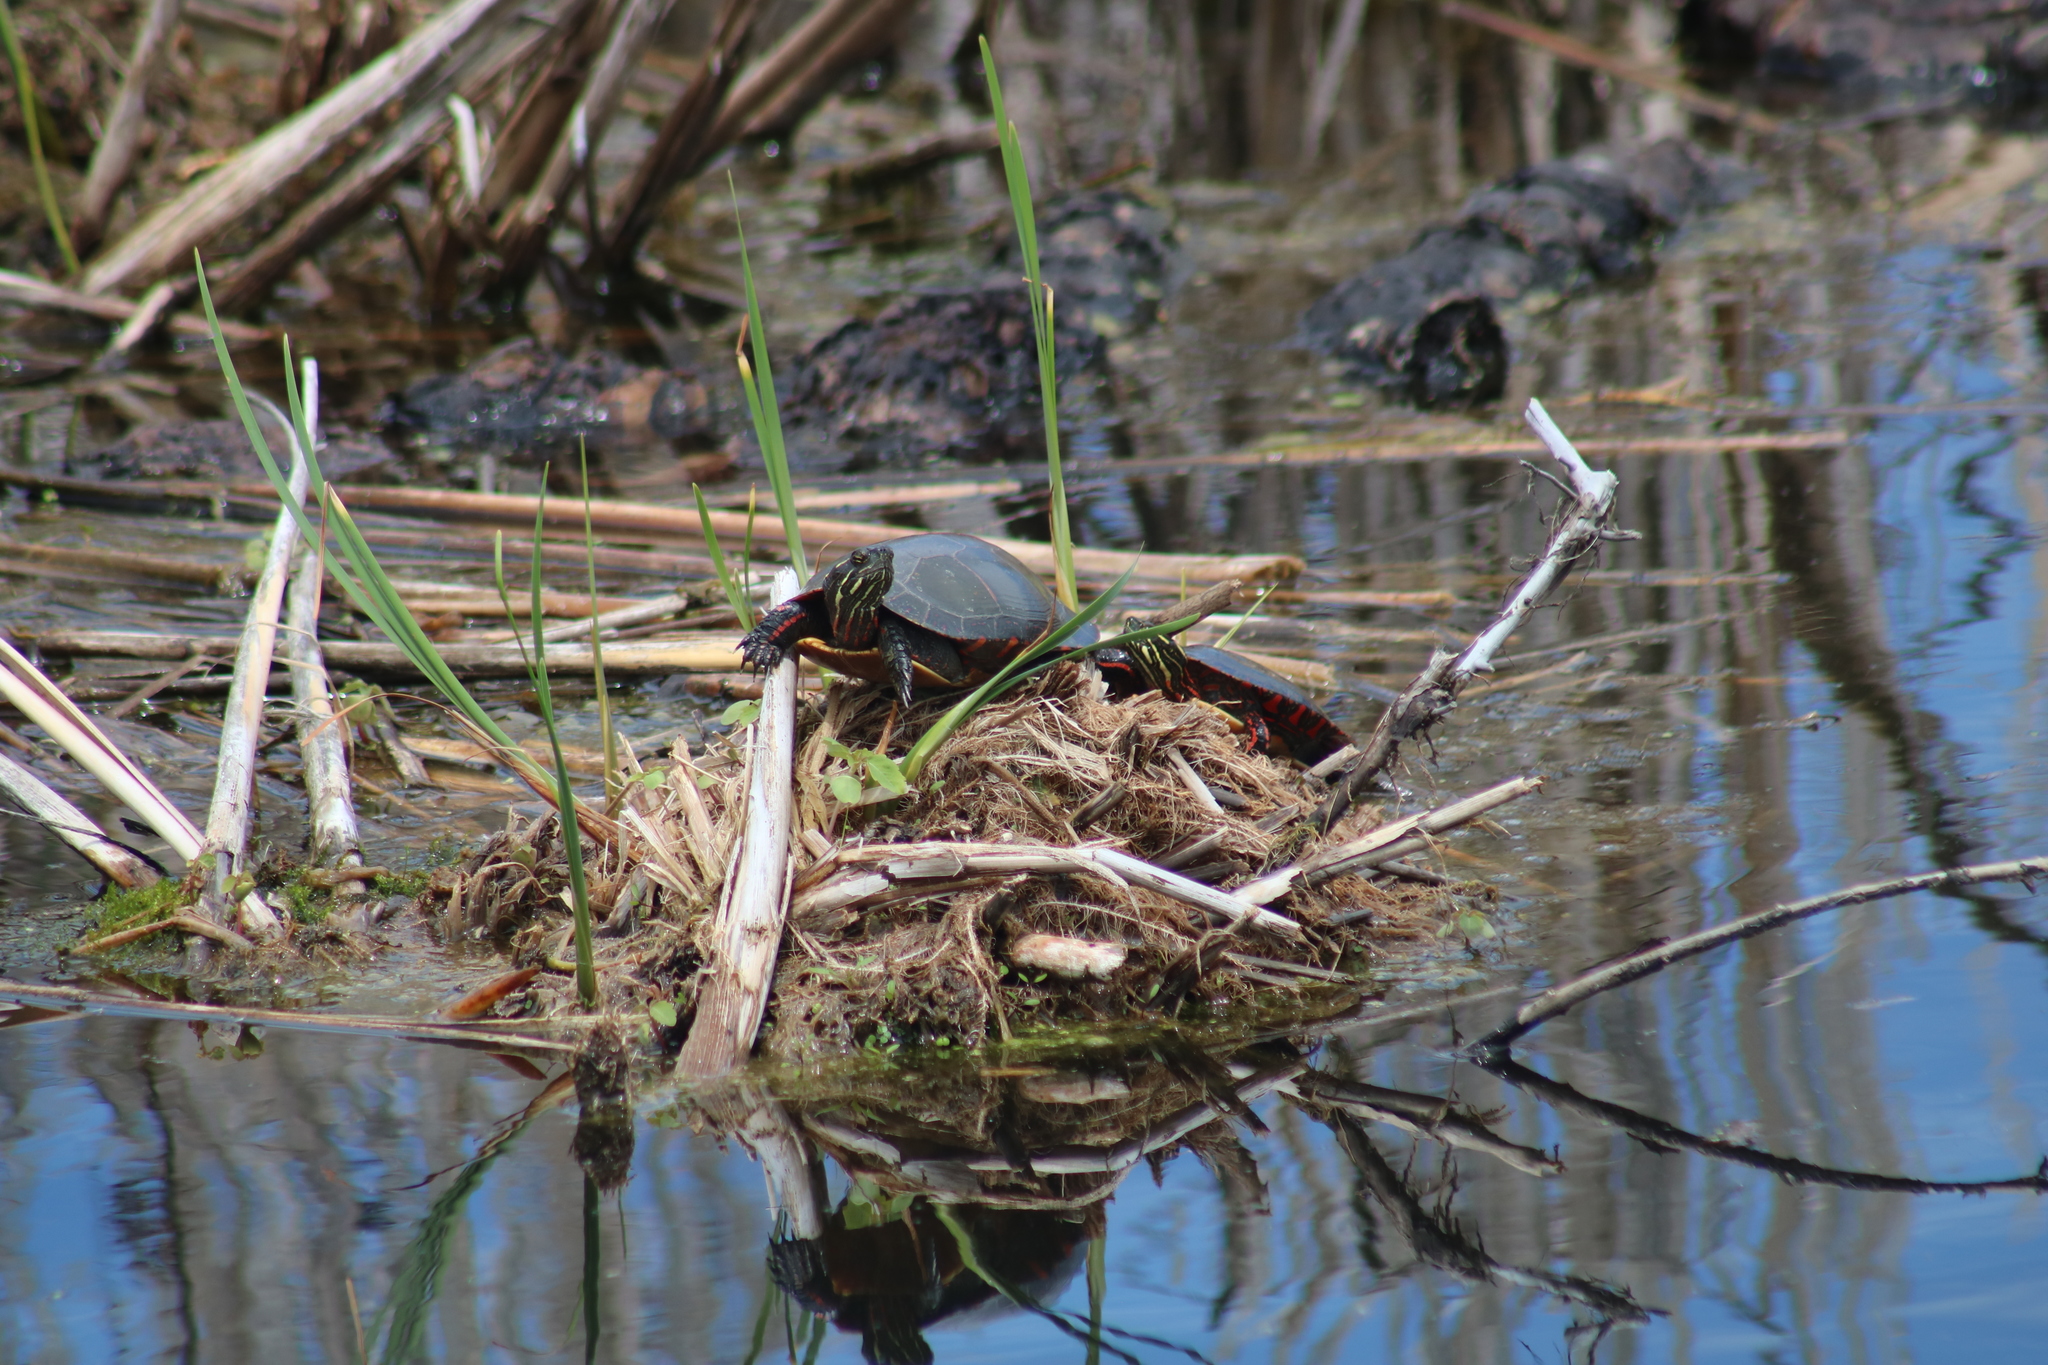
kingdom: Animalia
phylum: Chordata
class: Testudines
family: Emydidae
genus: Chrysemys
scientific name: Chrysemys picta
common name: Painted turtle
